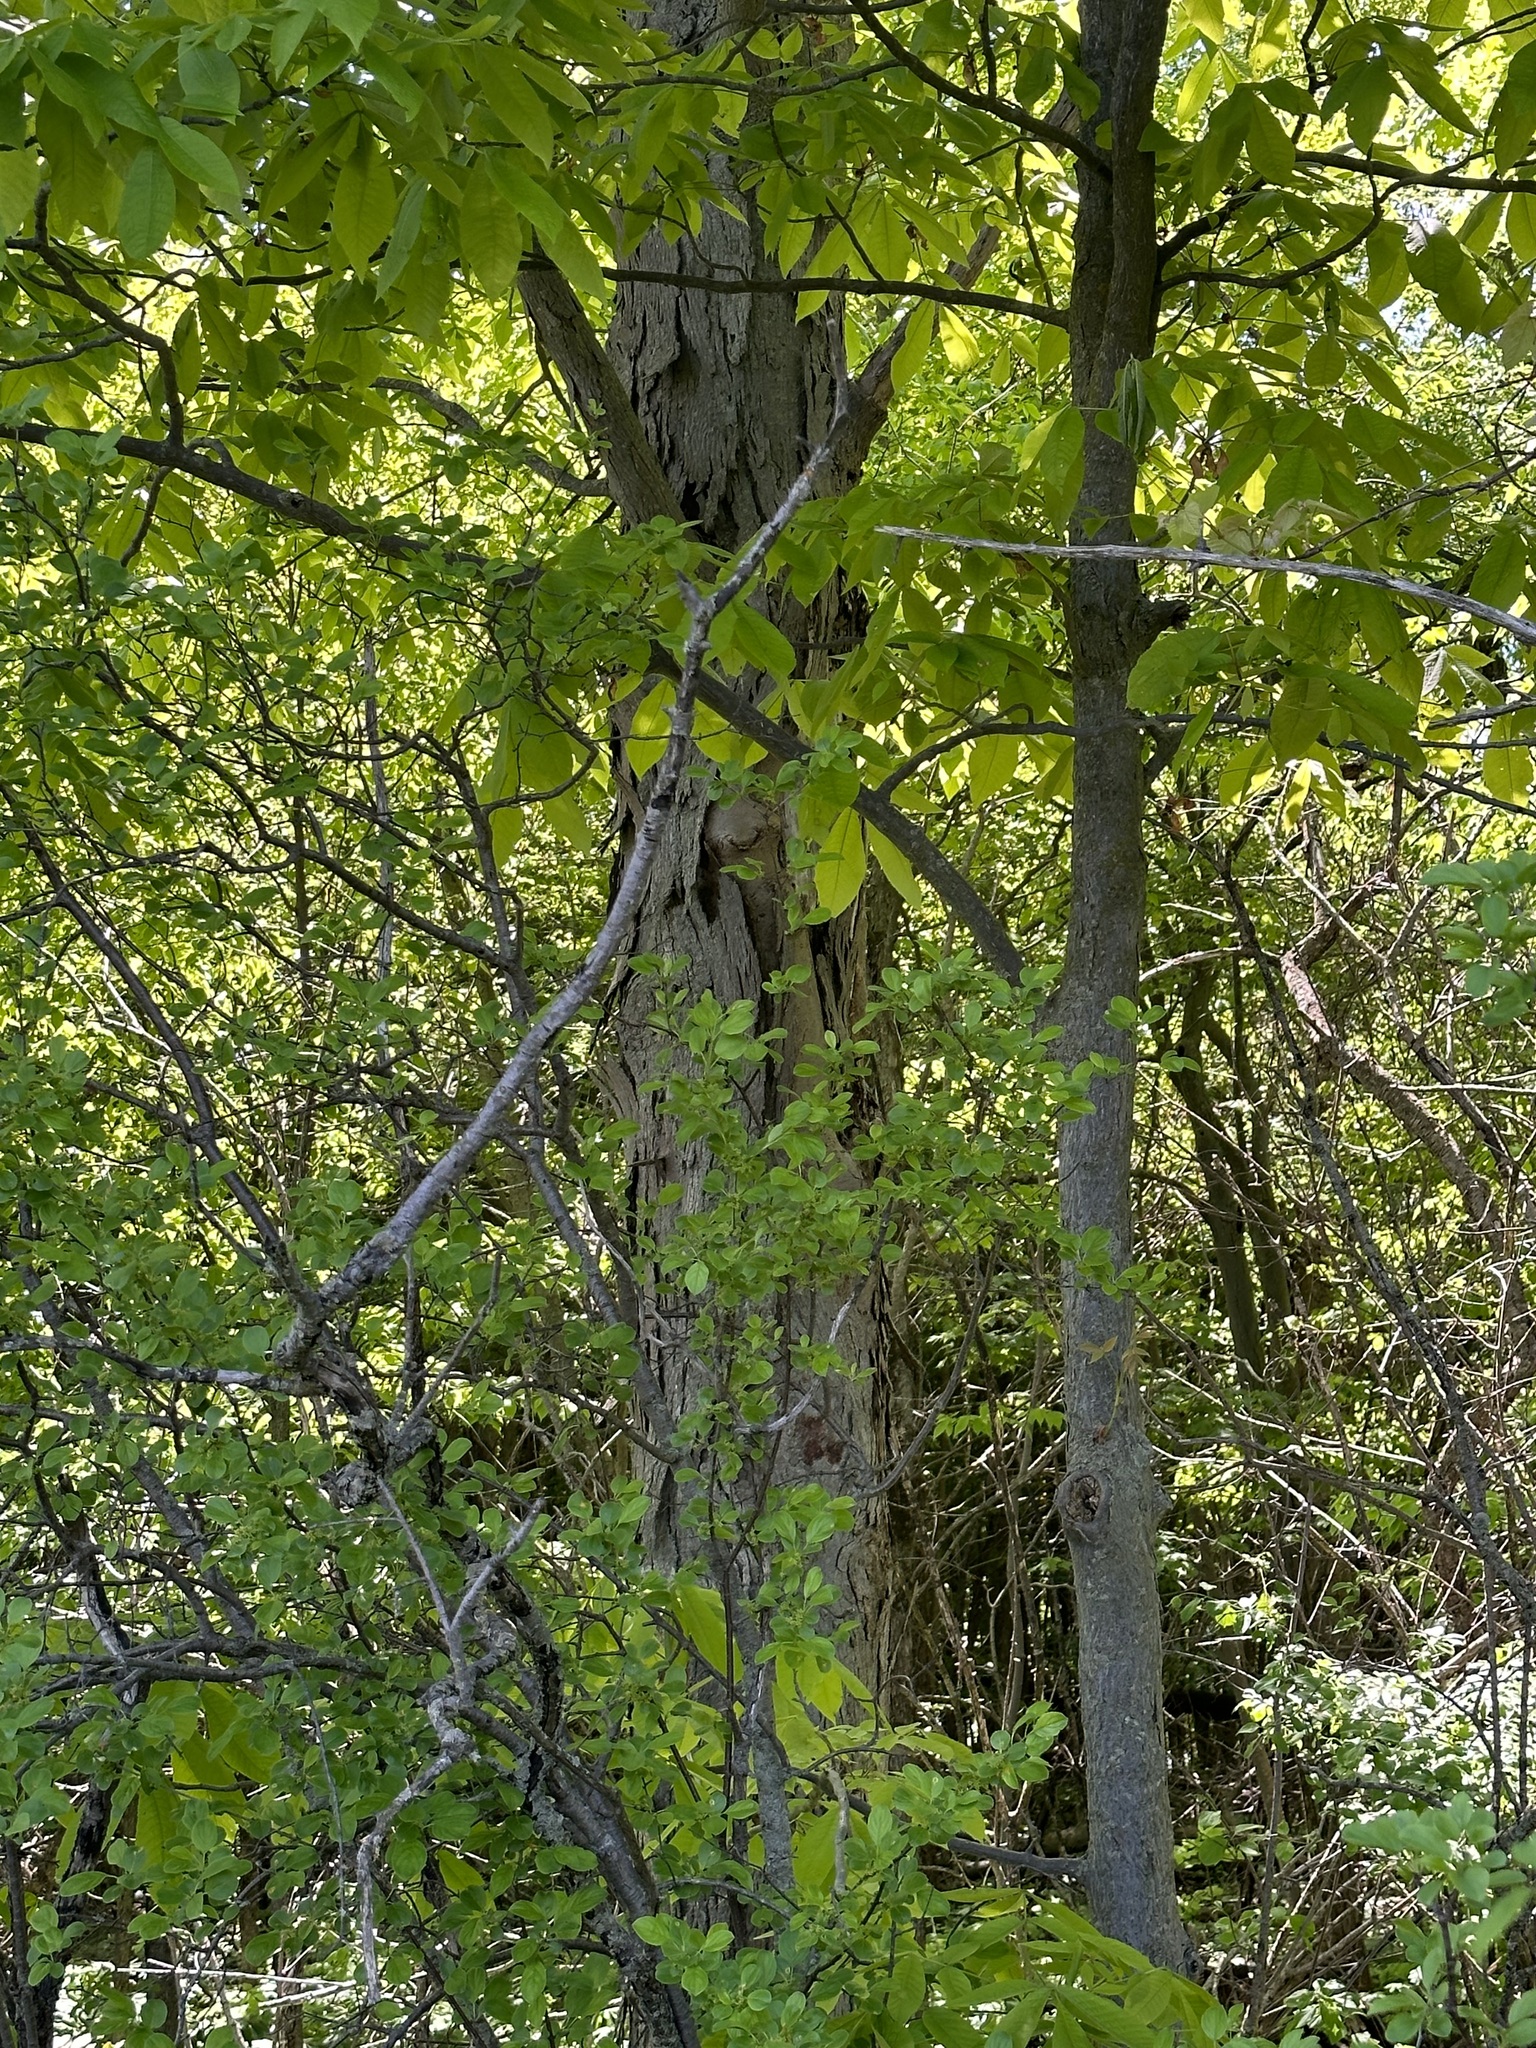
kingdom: Plantae
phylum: Tracheophyta
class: Magnoliopsida
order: Fagales
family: Juglandaceae
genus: Carya
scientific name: Carya ovata
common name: Shagbark hickory
